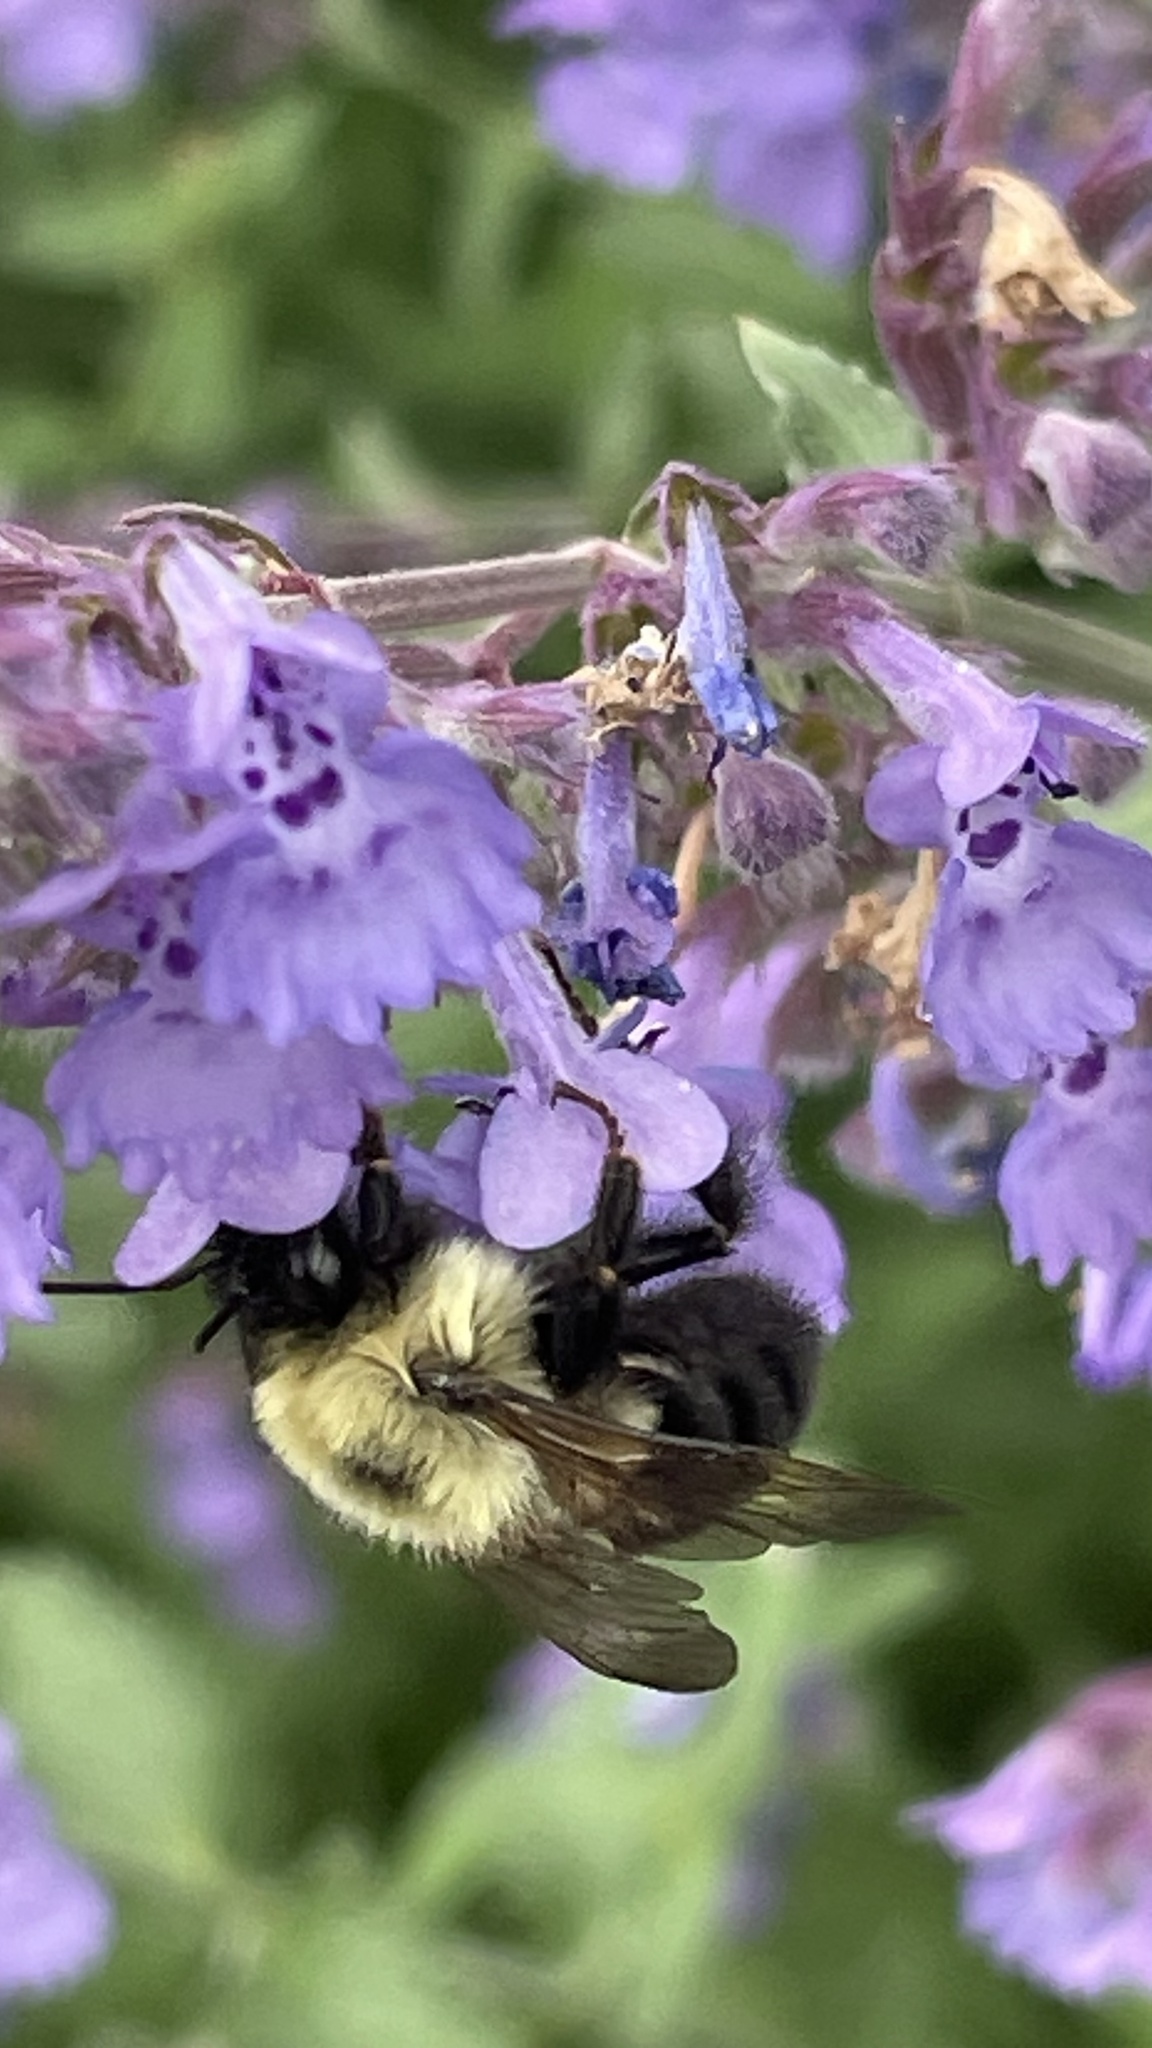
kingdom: Animalia
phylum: Arthropoda
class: Insecta
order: Hymenoptera
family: Apidae
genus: Bombus
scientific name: Bombus bimaculatus
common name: Two-spotted bumble bee
